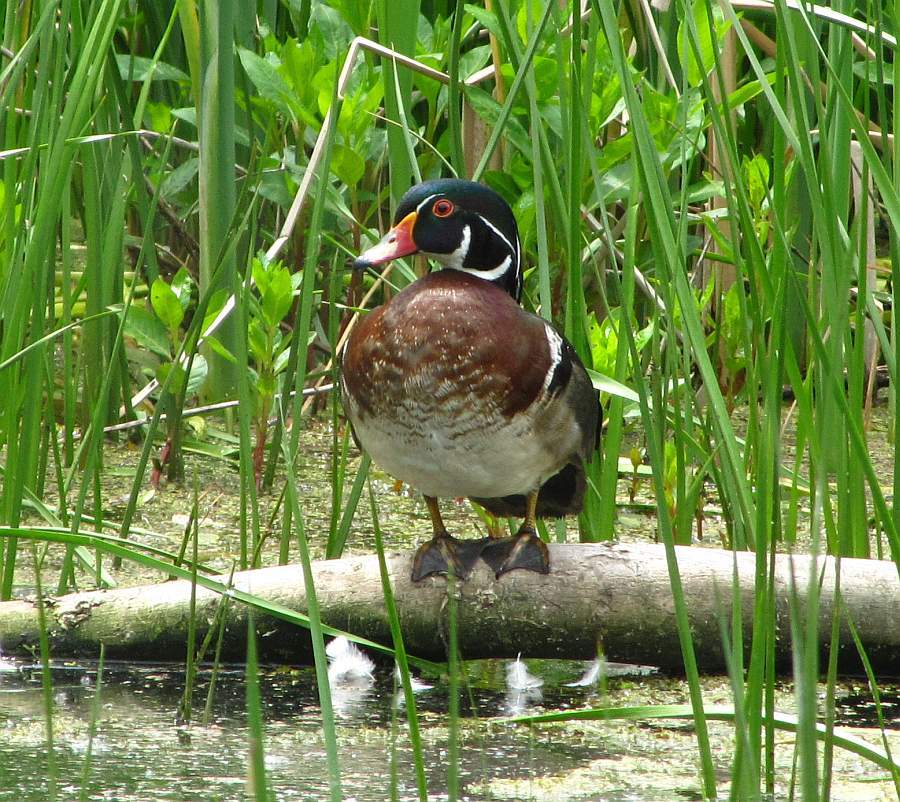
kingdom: Animalia
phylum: Chordata
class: Aves
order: Anseriformes
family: Anatidae
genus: Aix
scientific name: Aix sponsa
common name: Wood duck
